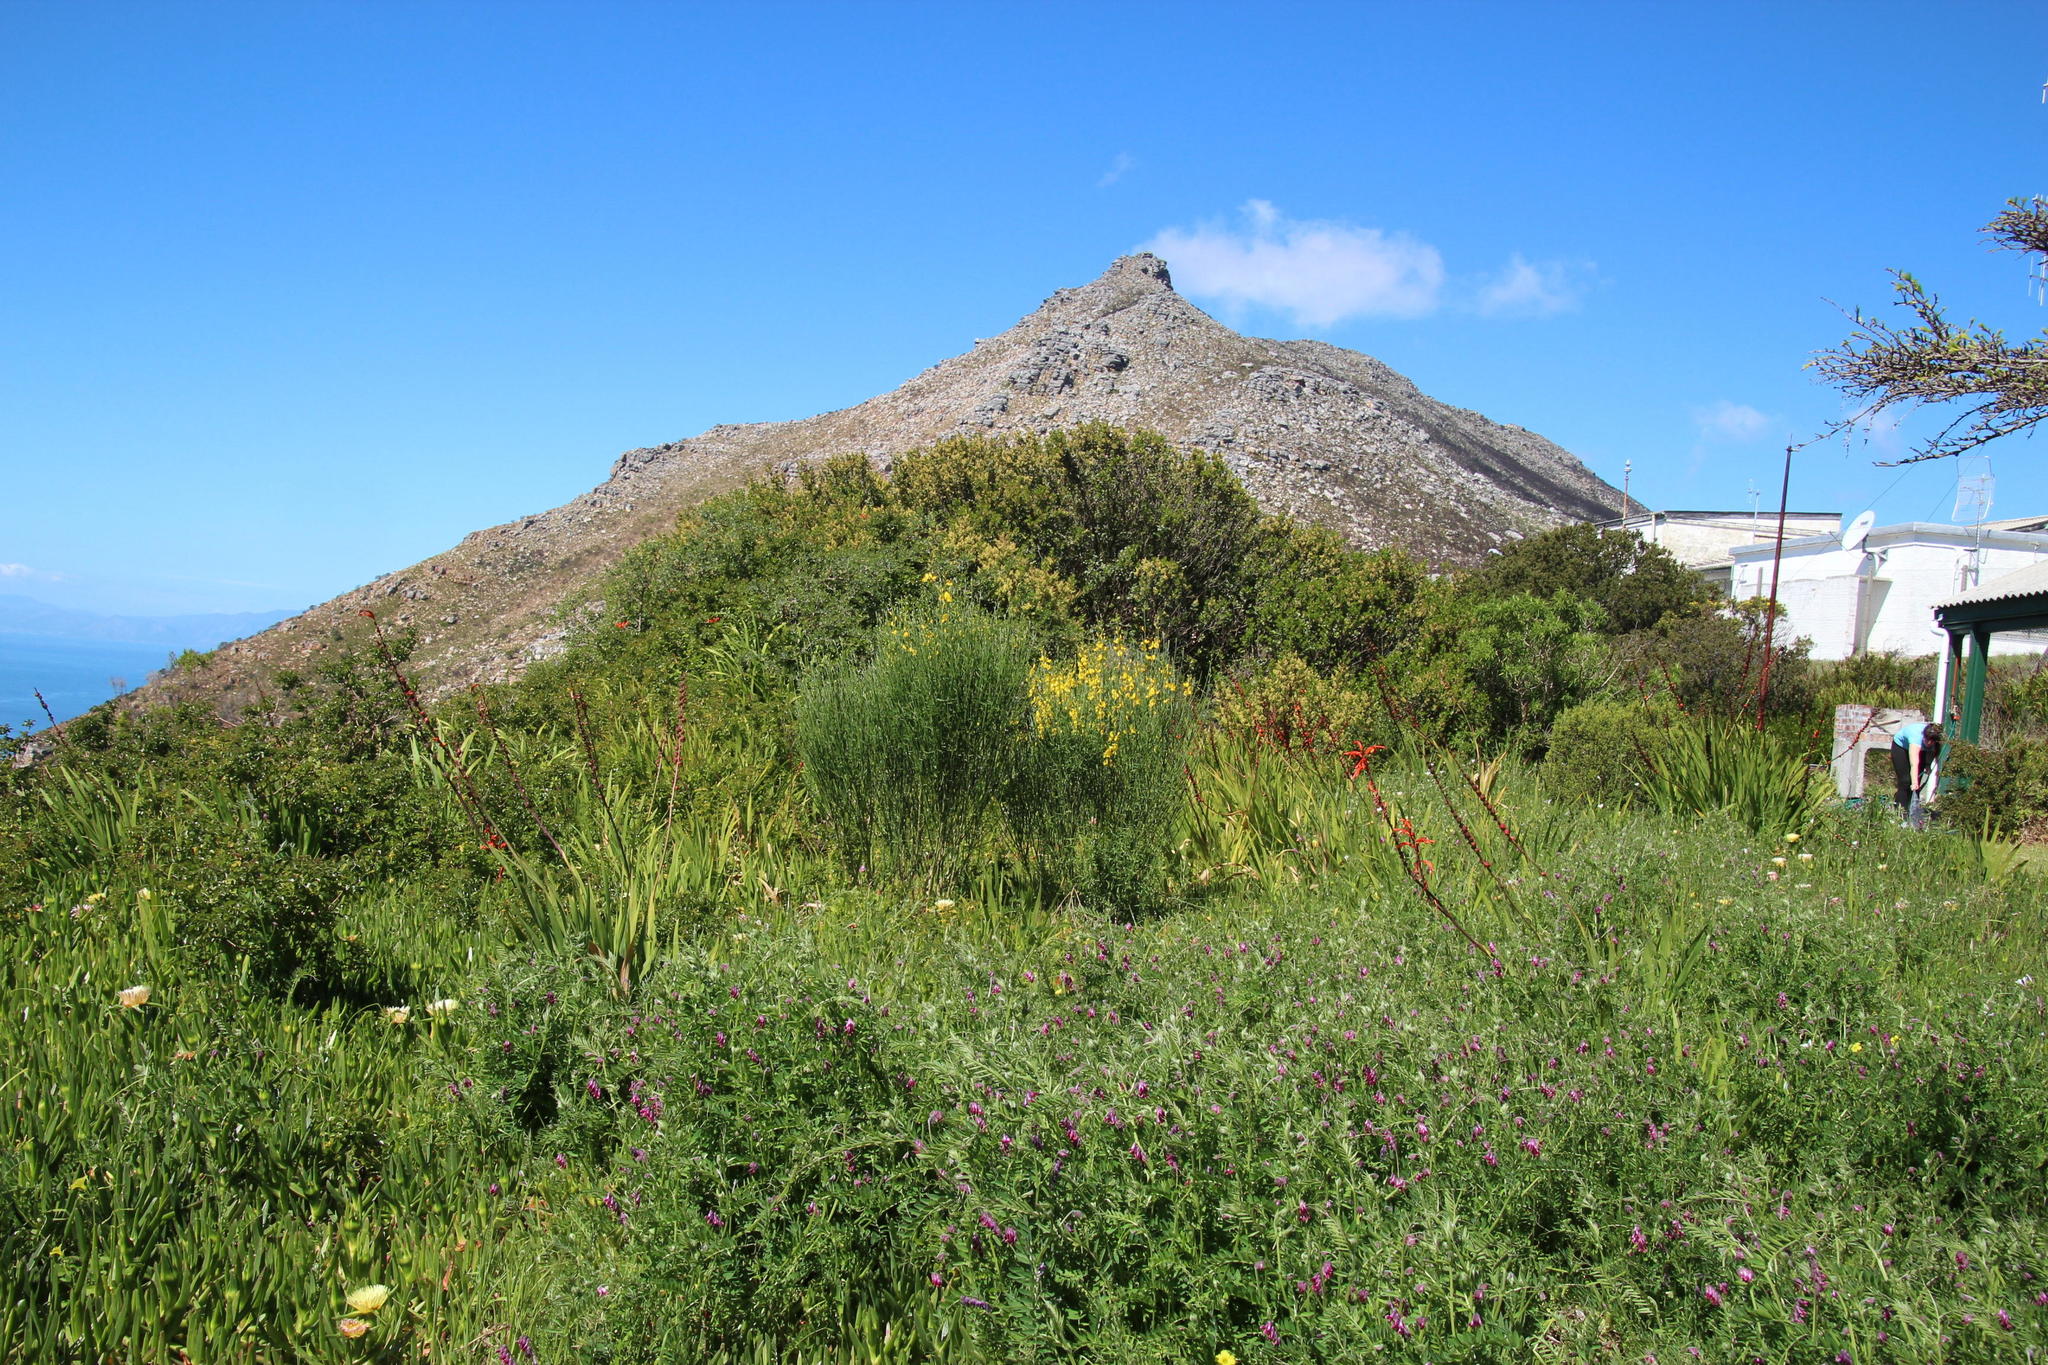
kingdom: Plantae
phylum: Tracheophyta
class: Magnoliopsida
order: Fabales
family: Fabaceae
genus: Spartium
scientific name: Spartium junceum
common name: Spanish broom
